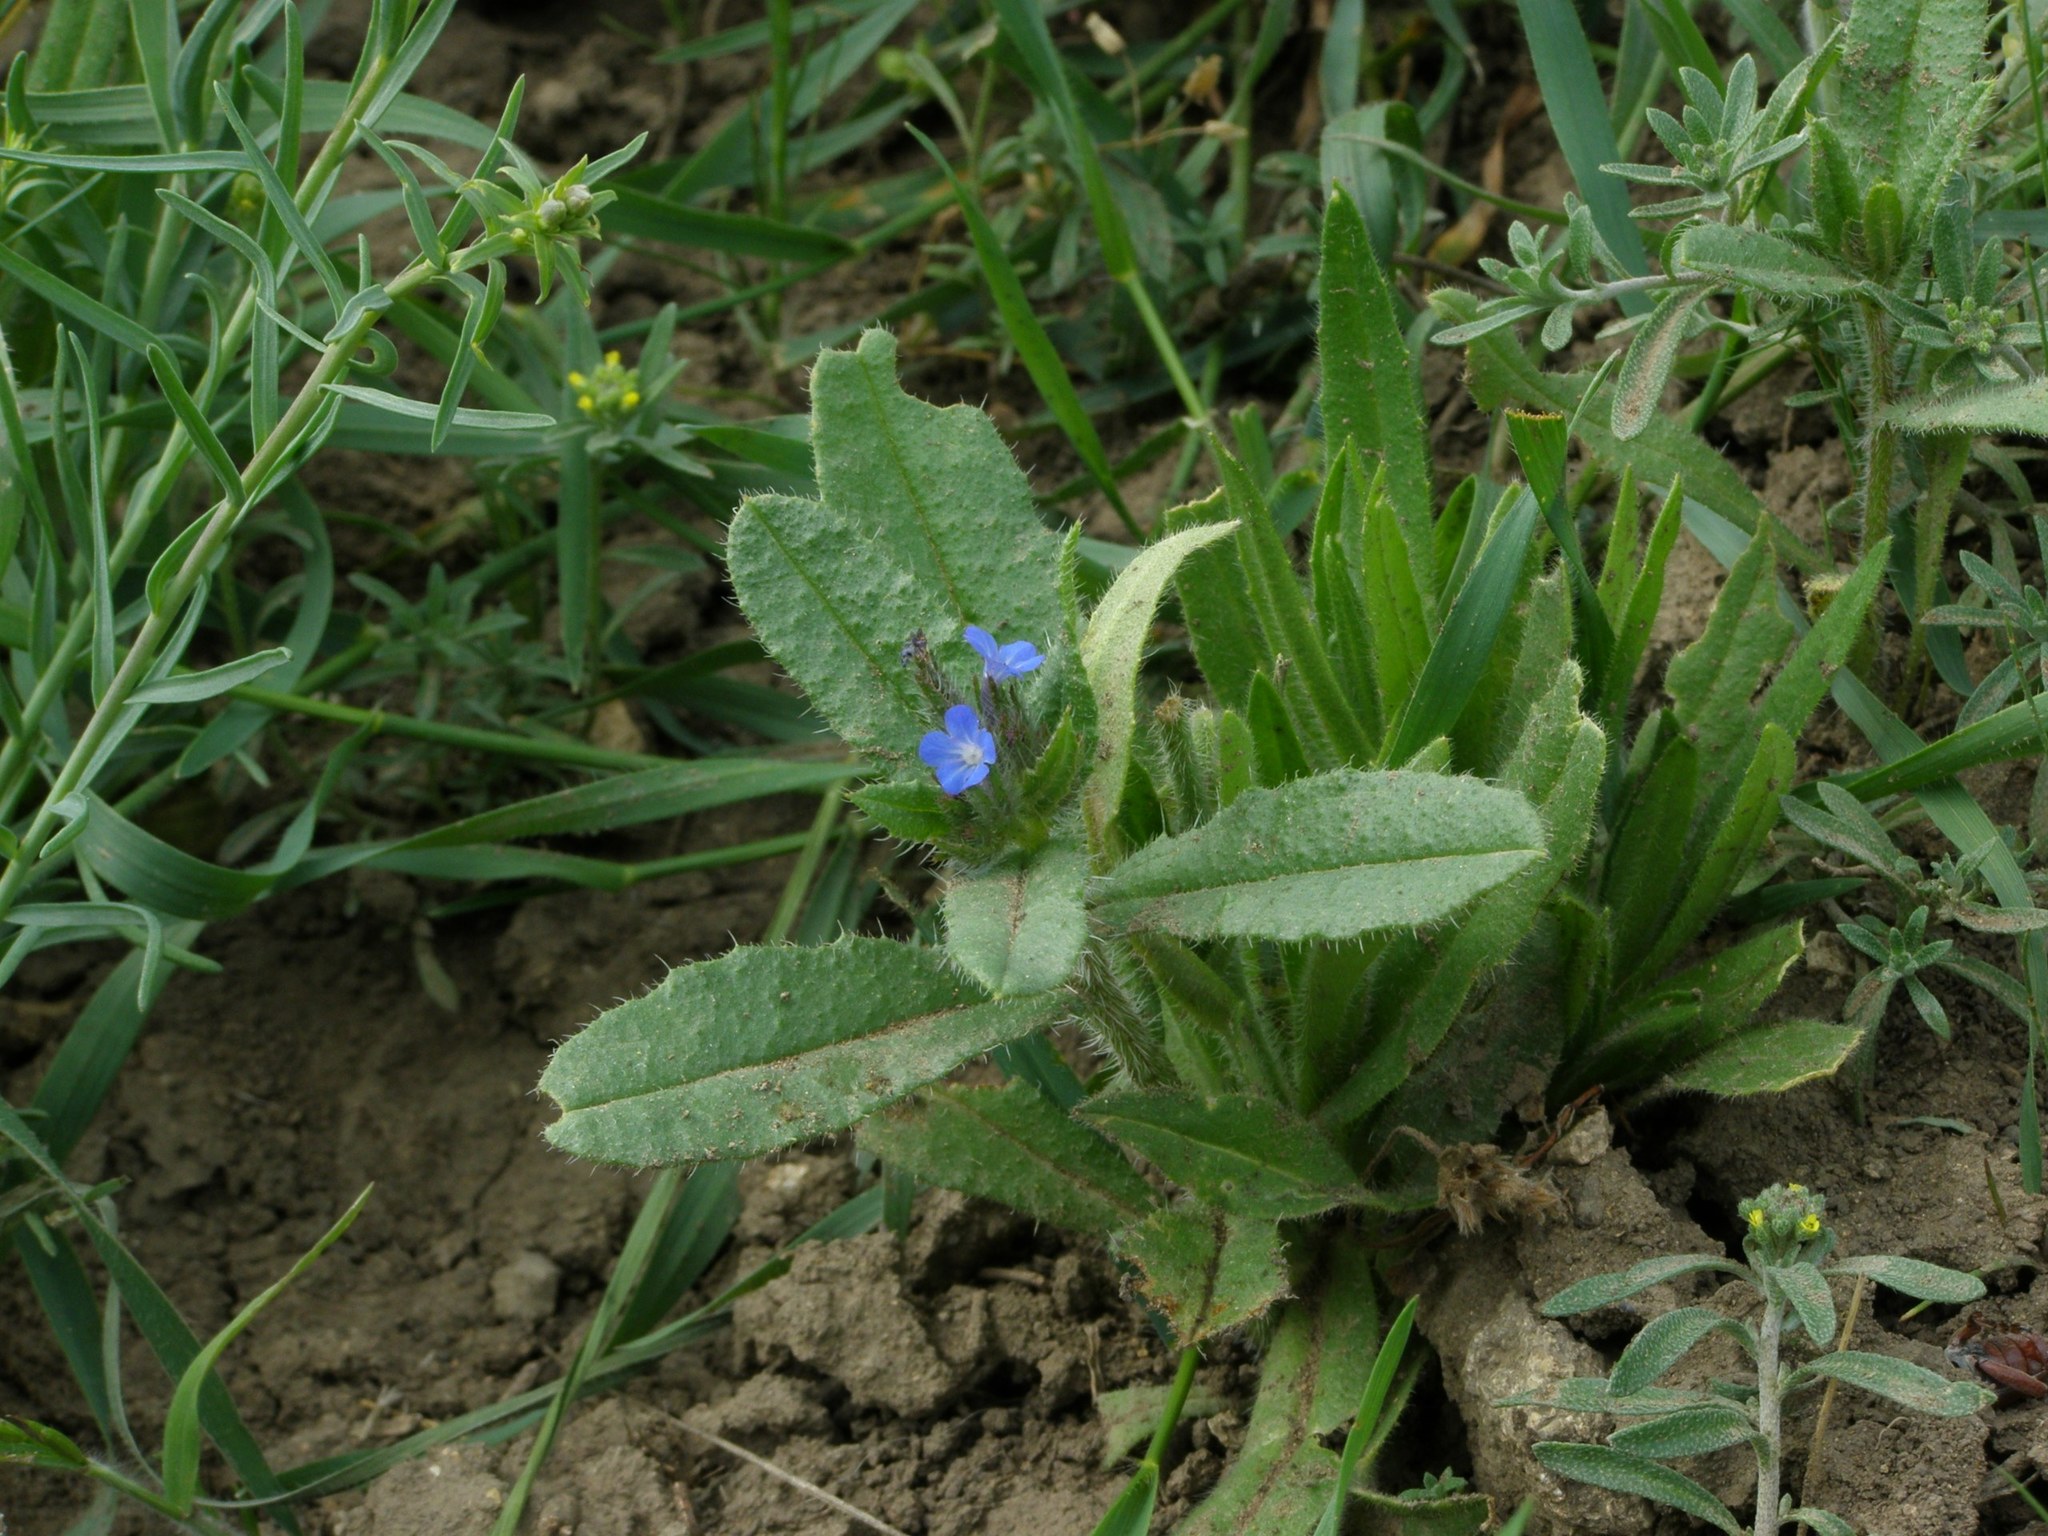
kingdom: Plantae
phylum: Tracheophyta
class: Magnoliopsida
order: Boraginales
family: Boraginaceae
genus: Lycopsis
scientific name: Lycopsis arvensis
